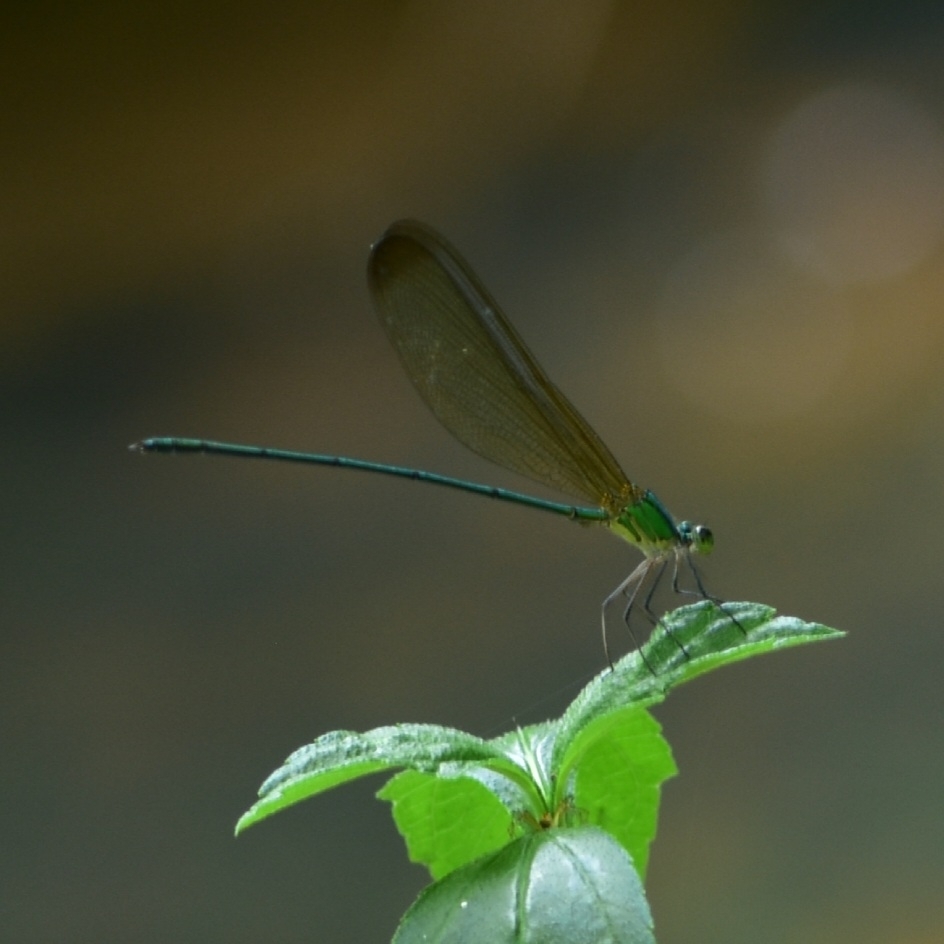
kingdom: Animalia
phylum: Arthropoda
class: Insecta
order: Odonata
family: Calopterygidae
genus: Vestalis
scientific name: Vestalis apicalis
